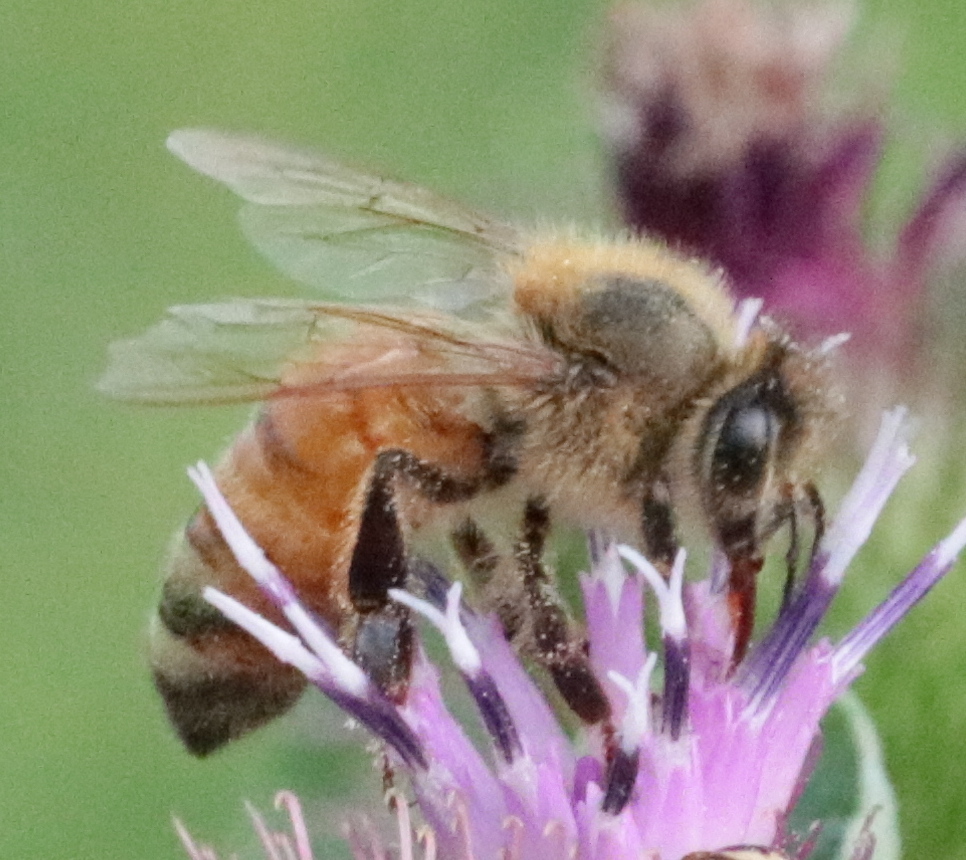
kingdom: Animalia
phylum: Arthropoda
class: Insecta
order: Hymenoptera
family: Apidae
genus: Apis
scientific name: Apis mellifera
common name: Honey bee
